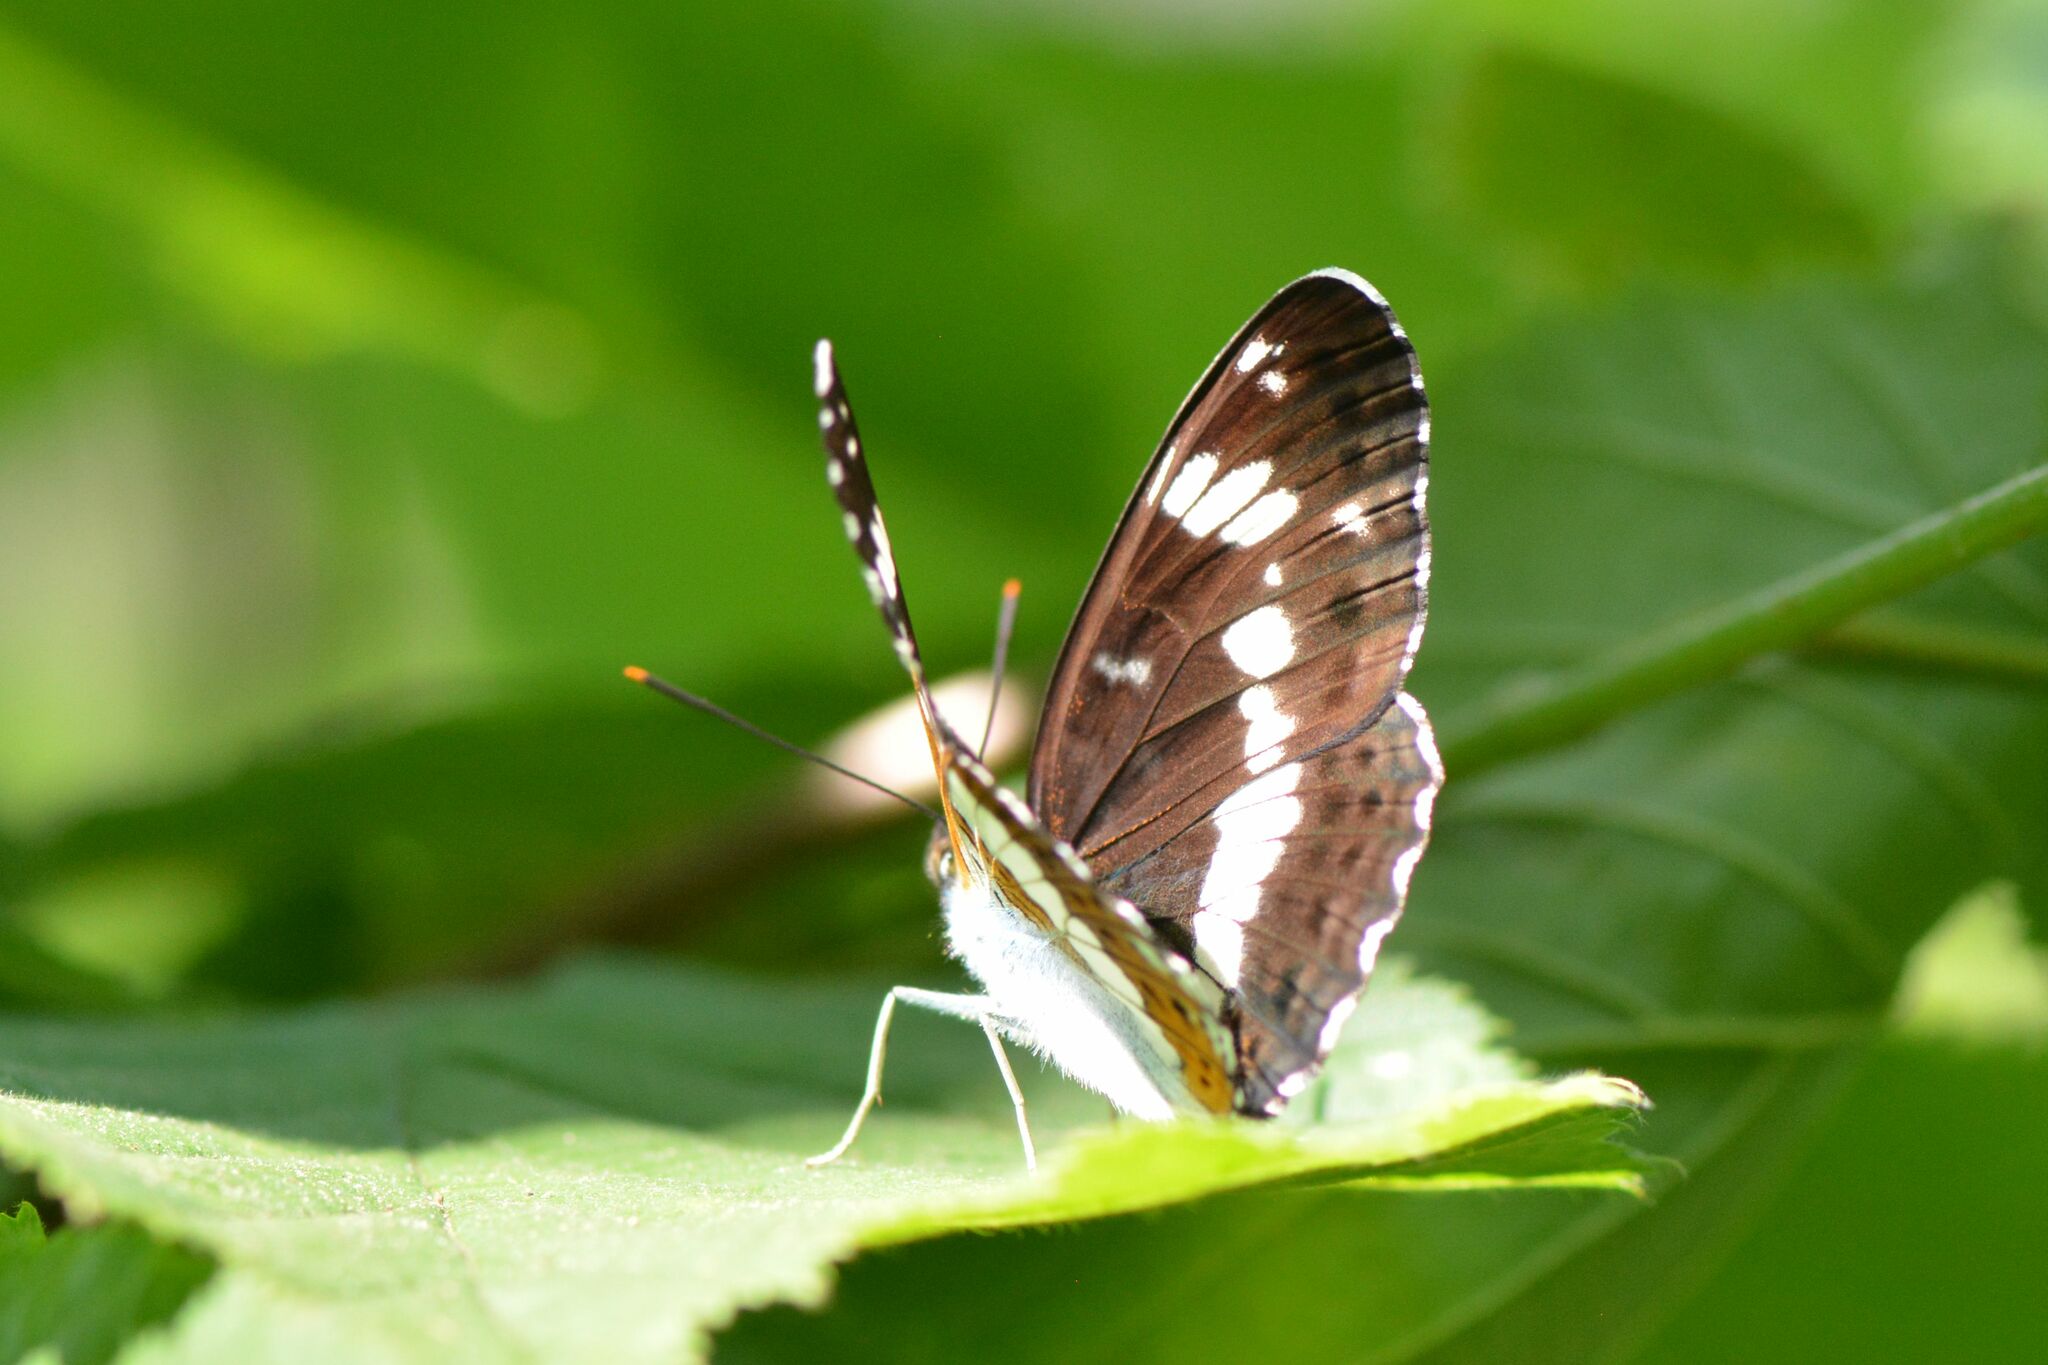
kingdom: Animalia
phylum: Arthropoda
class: Insecta
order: Lepidoptera
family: Nymphalidae
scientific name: Nymphalidae
